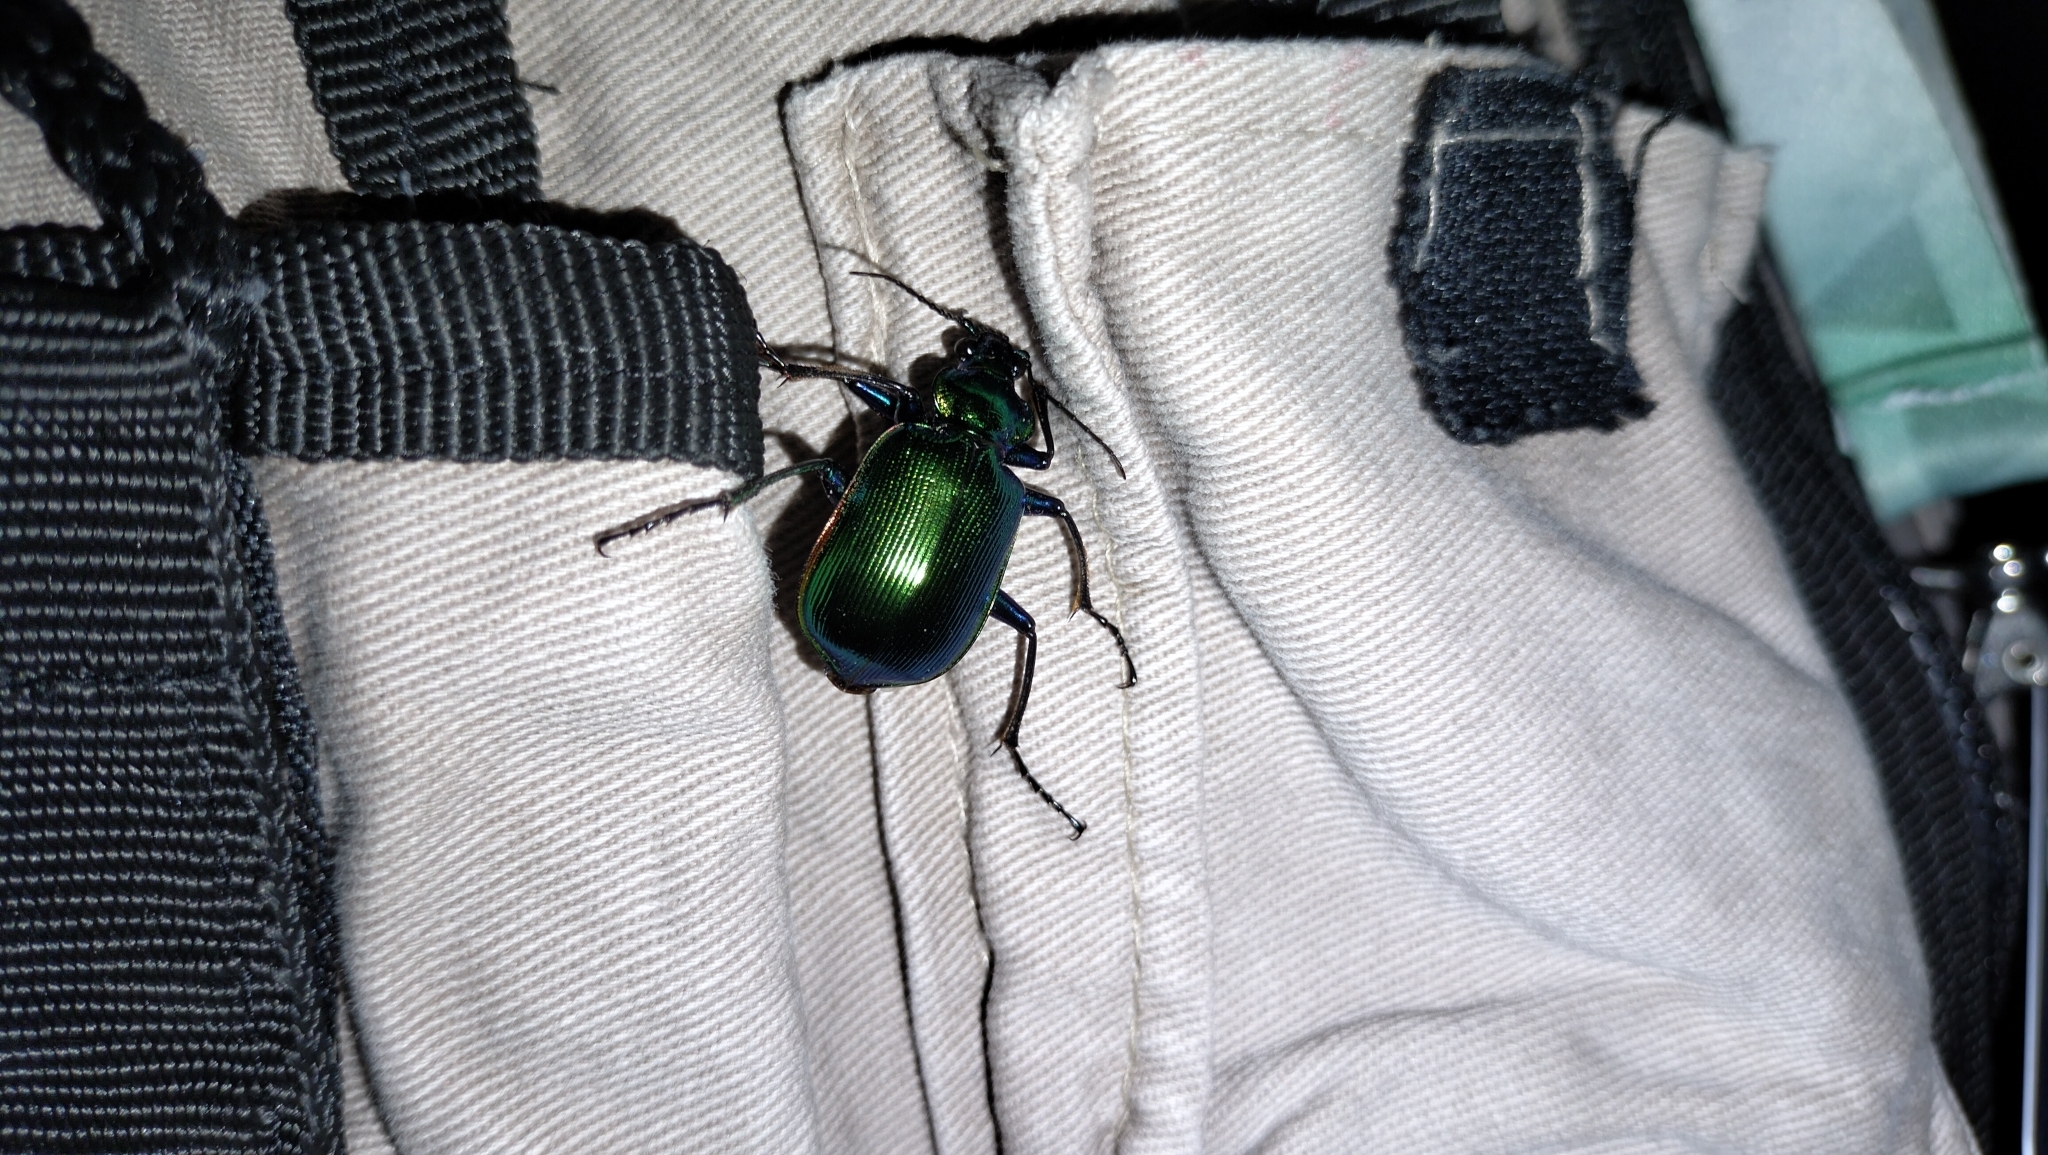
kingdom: Animalia
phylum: Arthropoda
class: Insecta
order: Coleoptera
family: Carabidae
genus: Calosoma
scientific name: Calosoma aurocinctum
